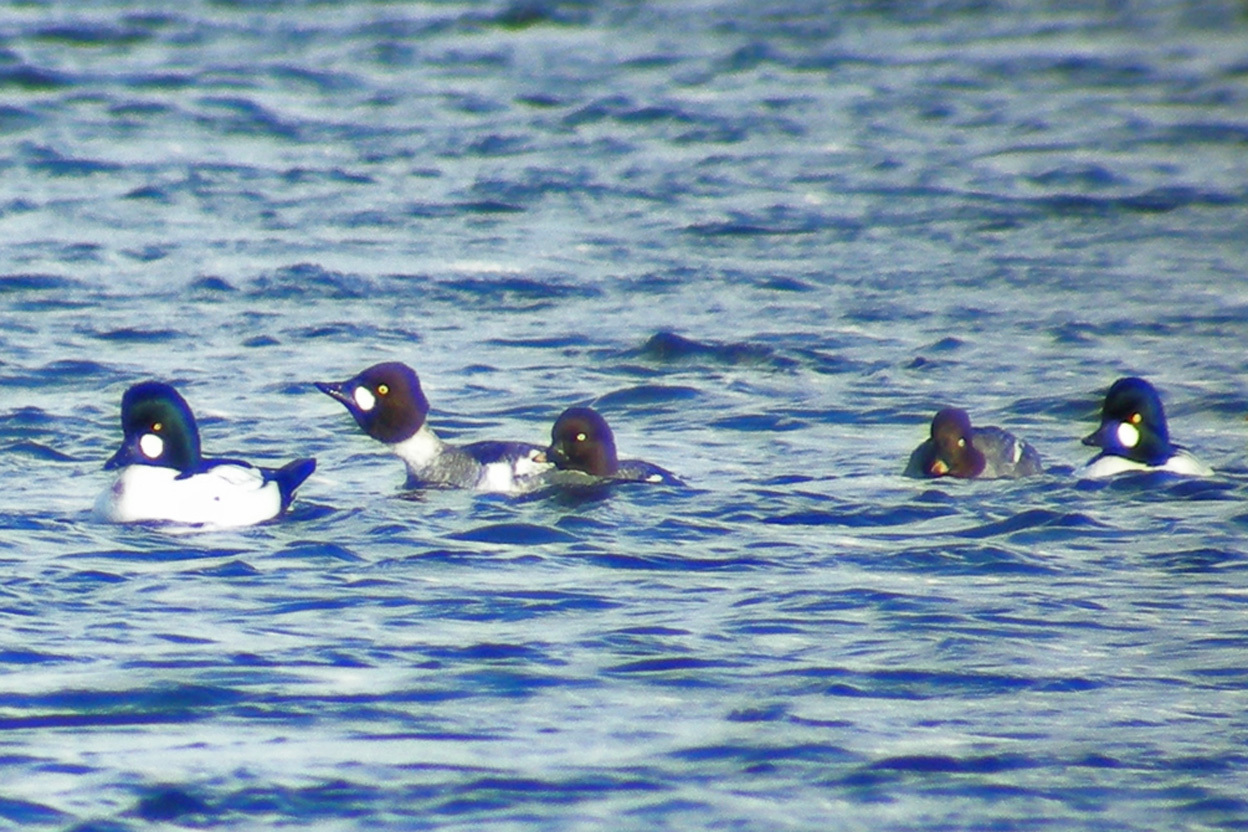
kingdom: Animalia
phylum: Chordata
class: Aves
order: Anseriformes
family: Anatidae
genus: Bucephala
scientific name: Bucephala clangula
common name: Common goldeneye
